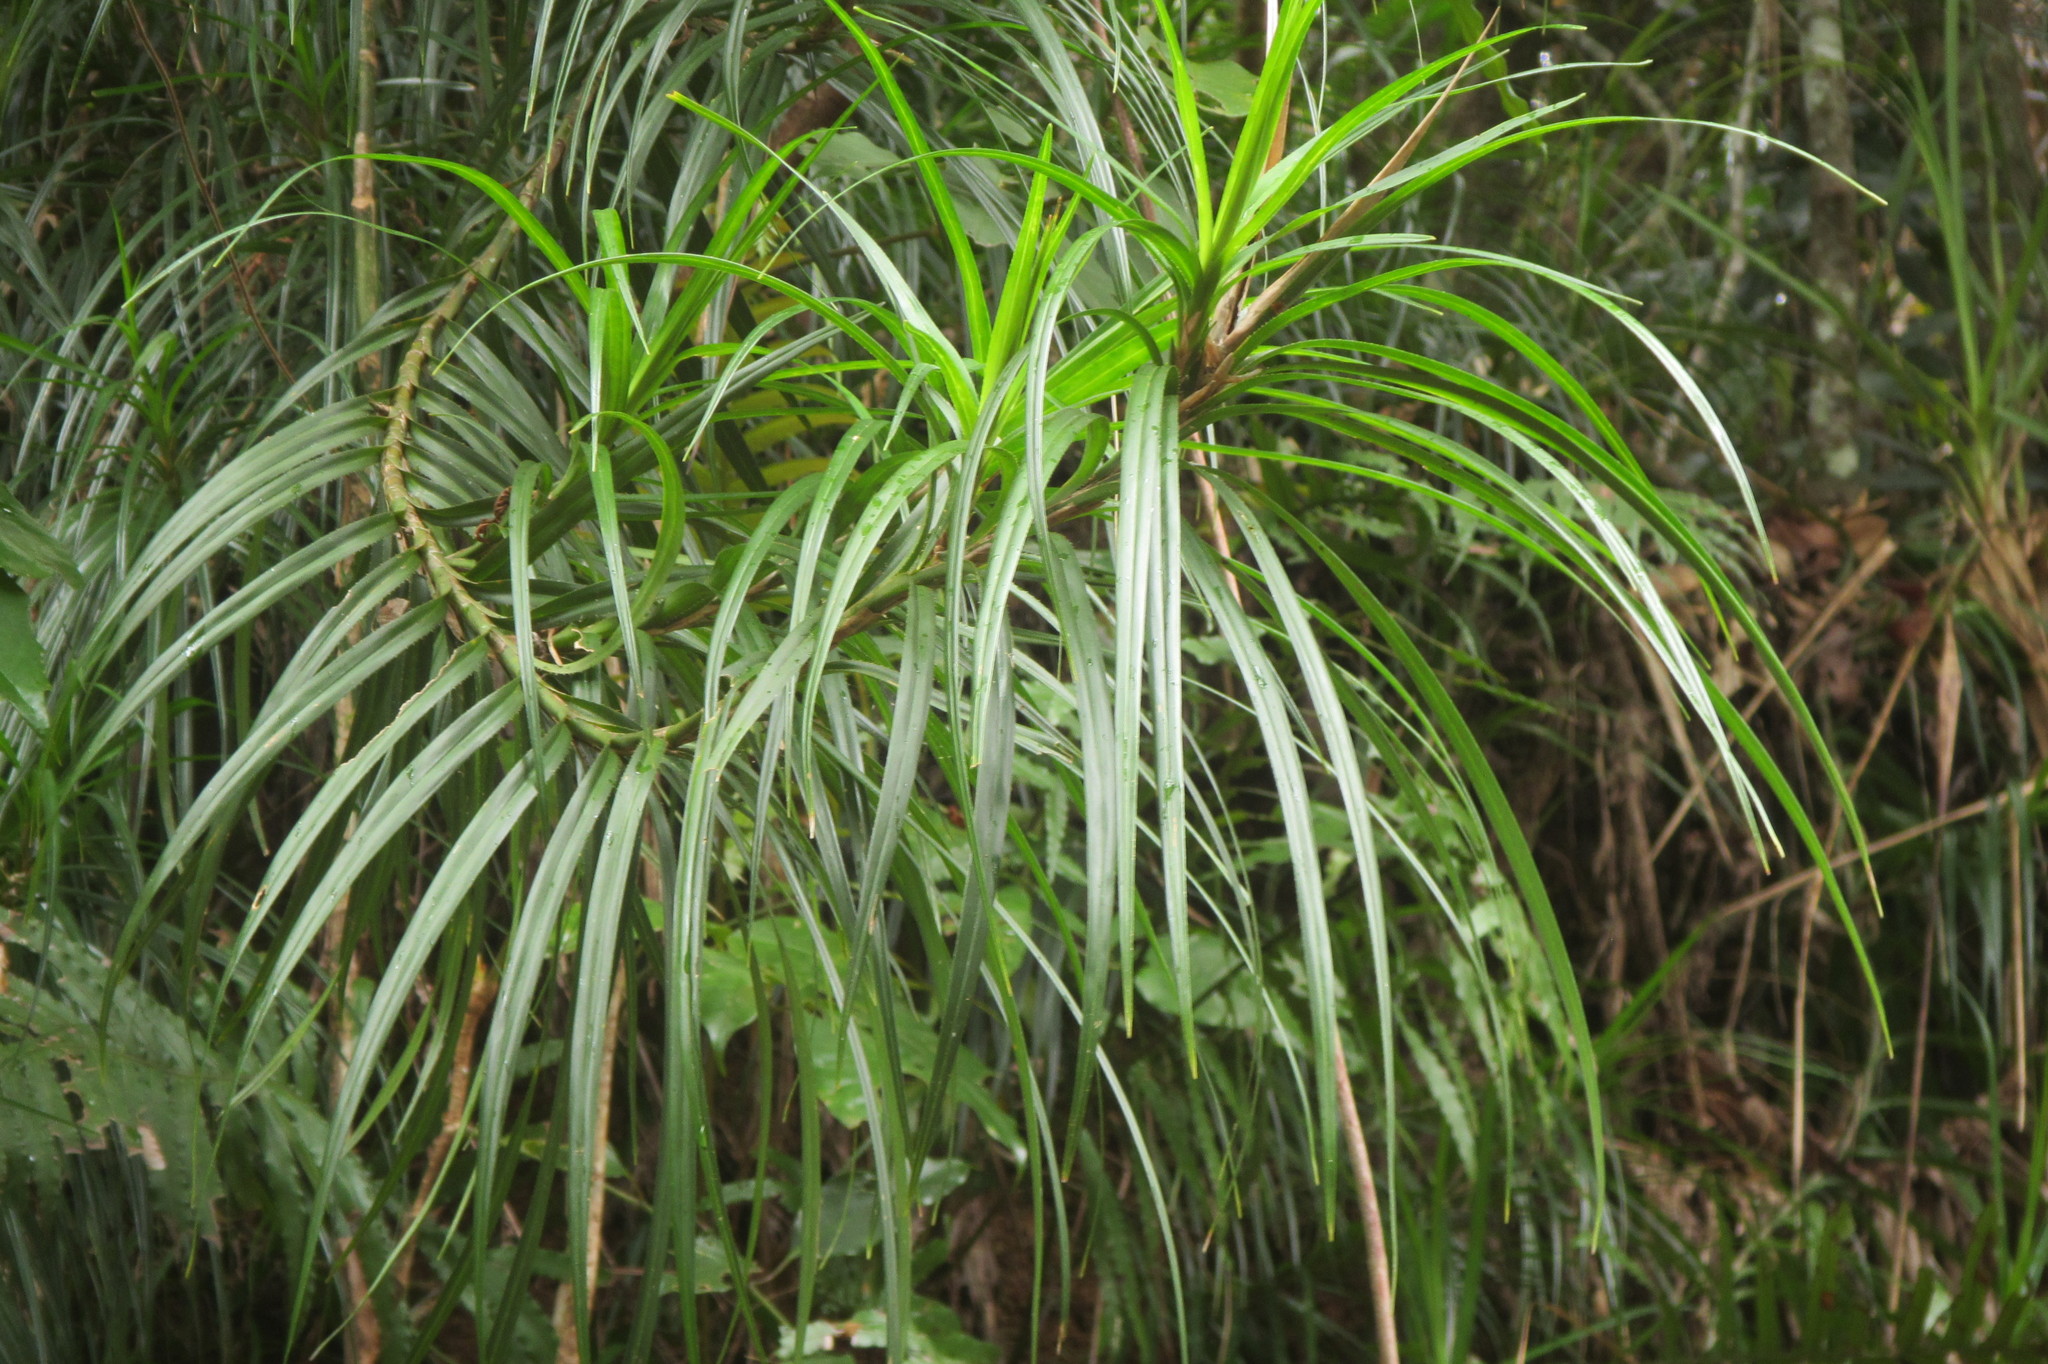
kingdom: Plantae
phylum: Tracheophyta
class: Liliopsida
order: Pandanales
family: Pandanaceae
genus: Freycinetia
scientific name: Freycinetia excelsa
